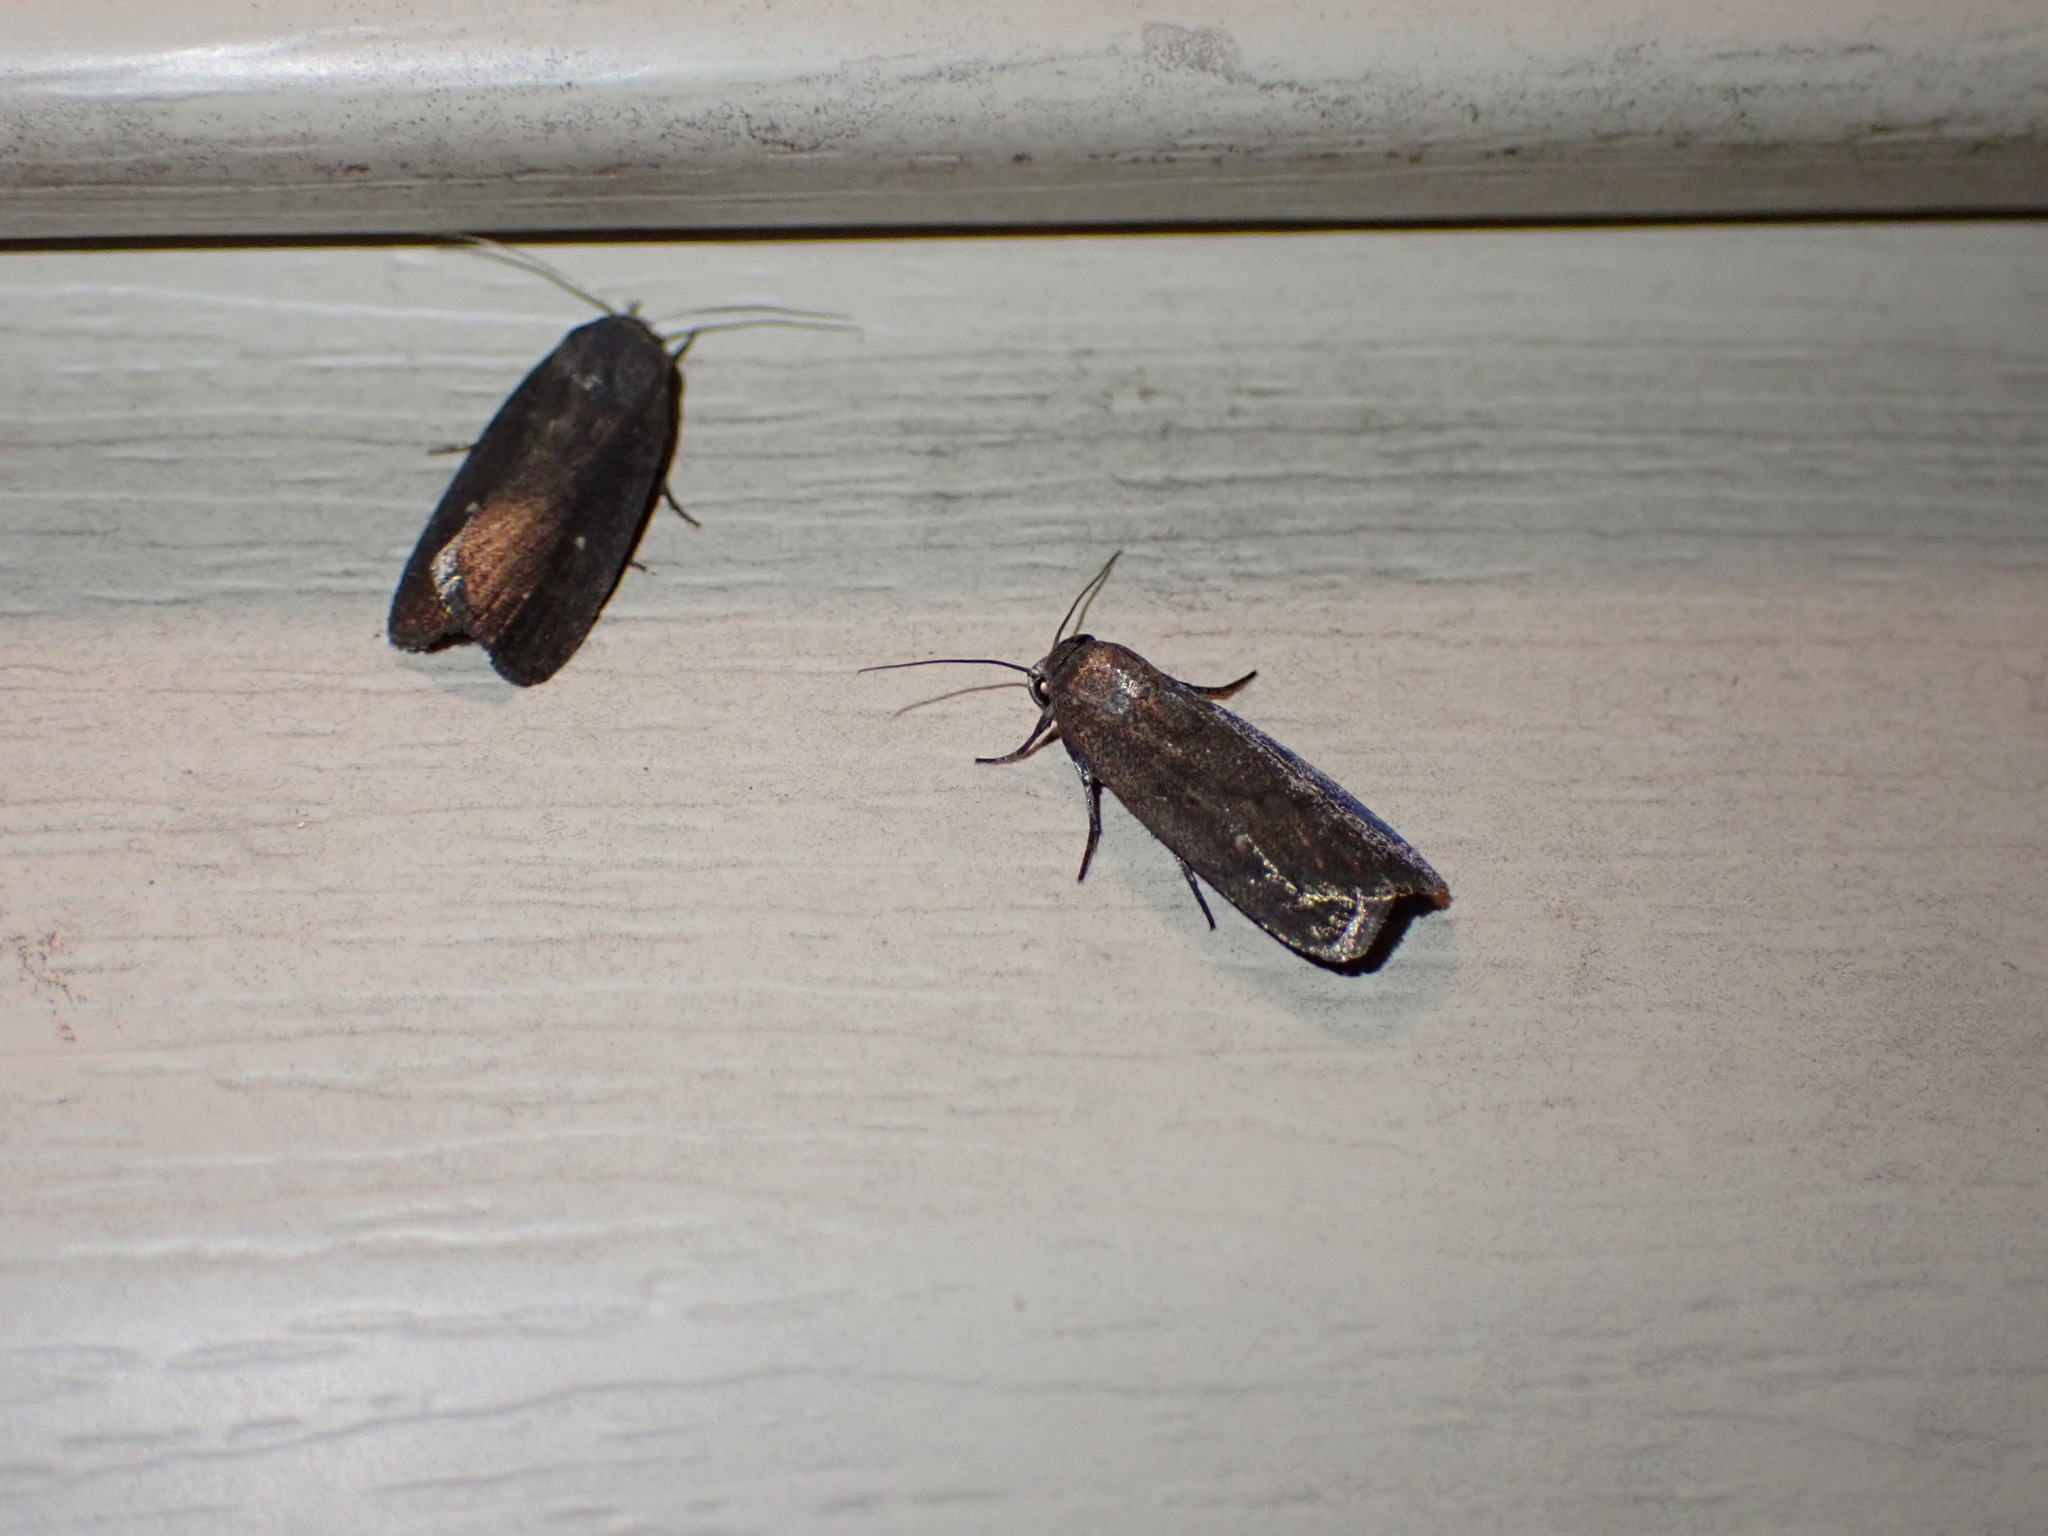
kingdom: Animalia
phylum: Arthropoda
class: Insecta
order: Lepidoptera
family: Noctuidae
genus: Proxenus
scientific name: Proxenus miranda
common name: Miranda moth
